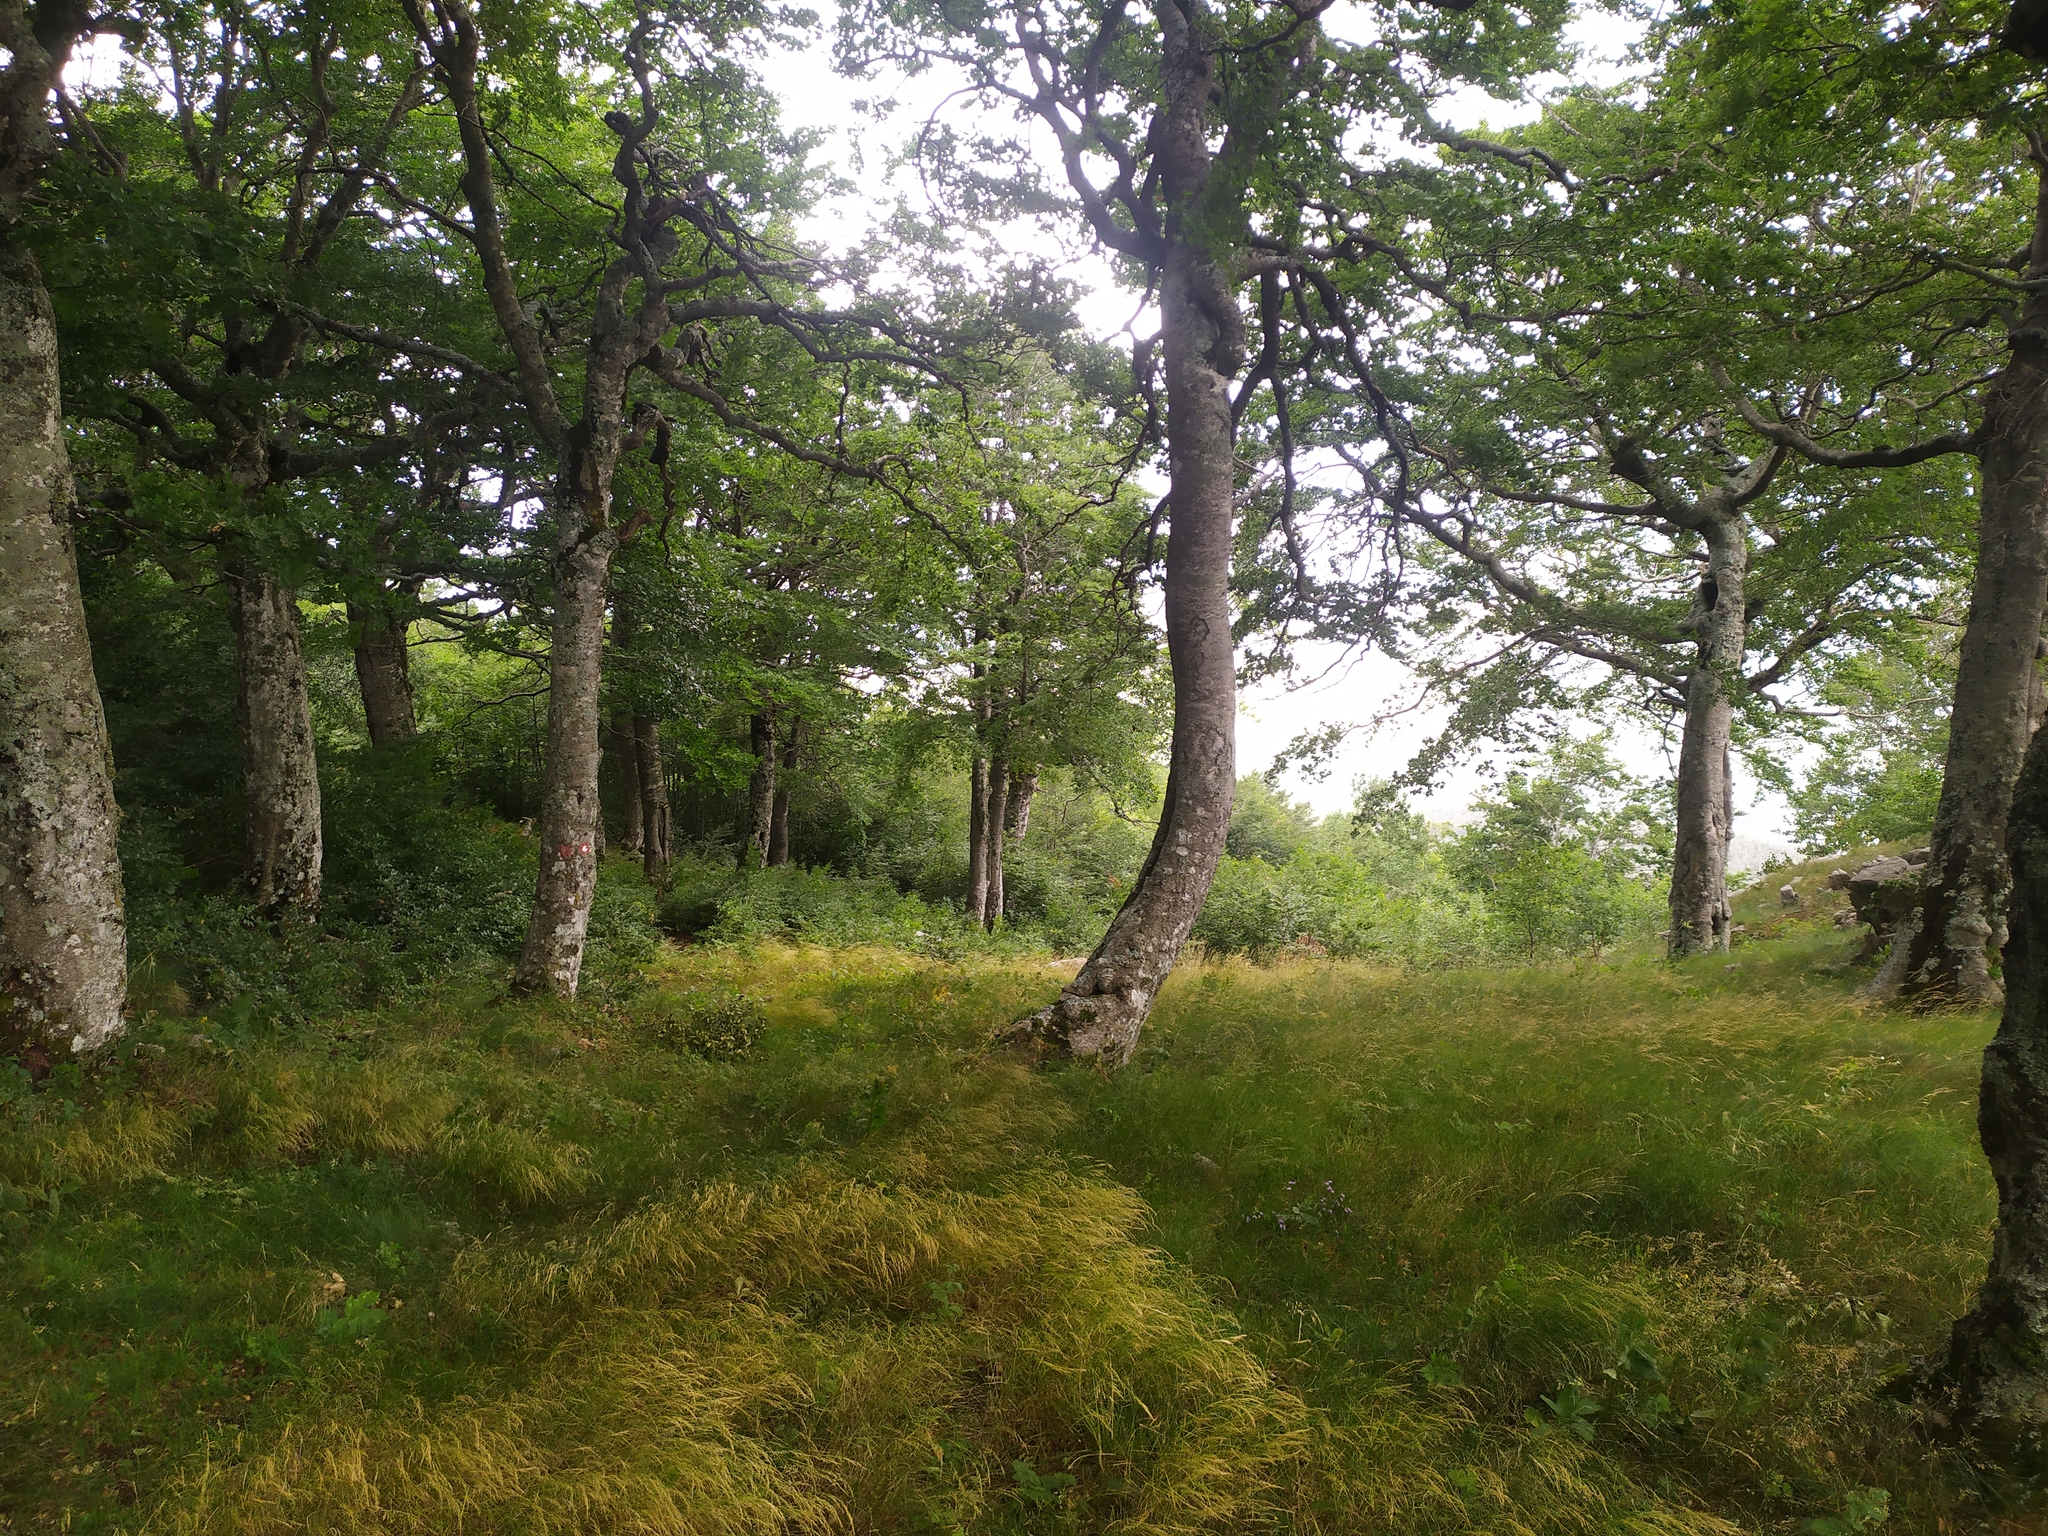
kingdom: Plantae
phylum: Tracheophyta
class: Magnoliopsida
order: Fagales
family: Fagaceae
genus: Fagus
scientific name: Fagus sylvatica
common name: Beech
